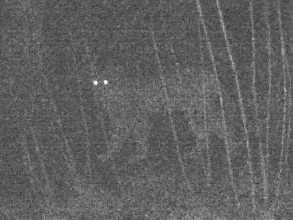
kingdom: Animalia
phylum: Chordata
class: Mammalia
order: Carnivora
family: Felidae
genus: Lynx
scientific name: Lynx lynx
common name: Eurasian lynx
